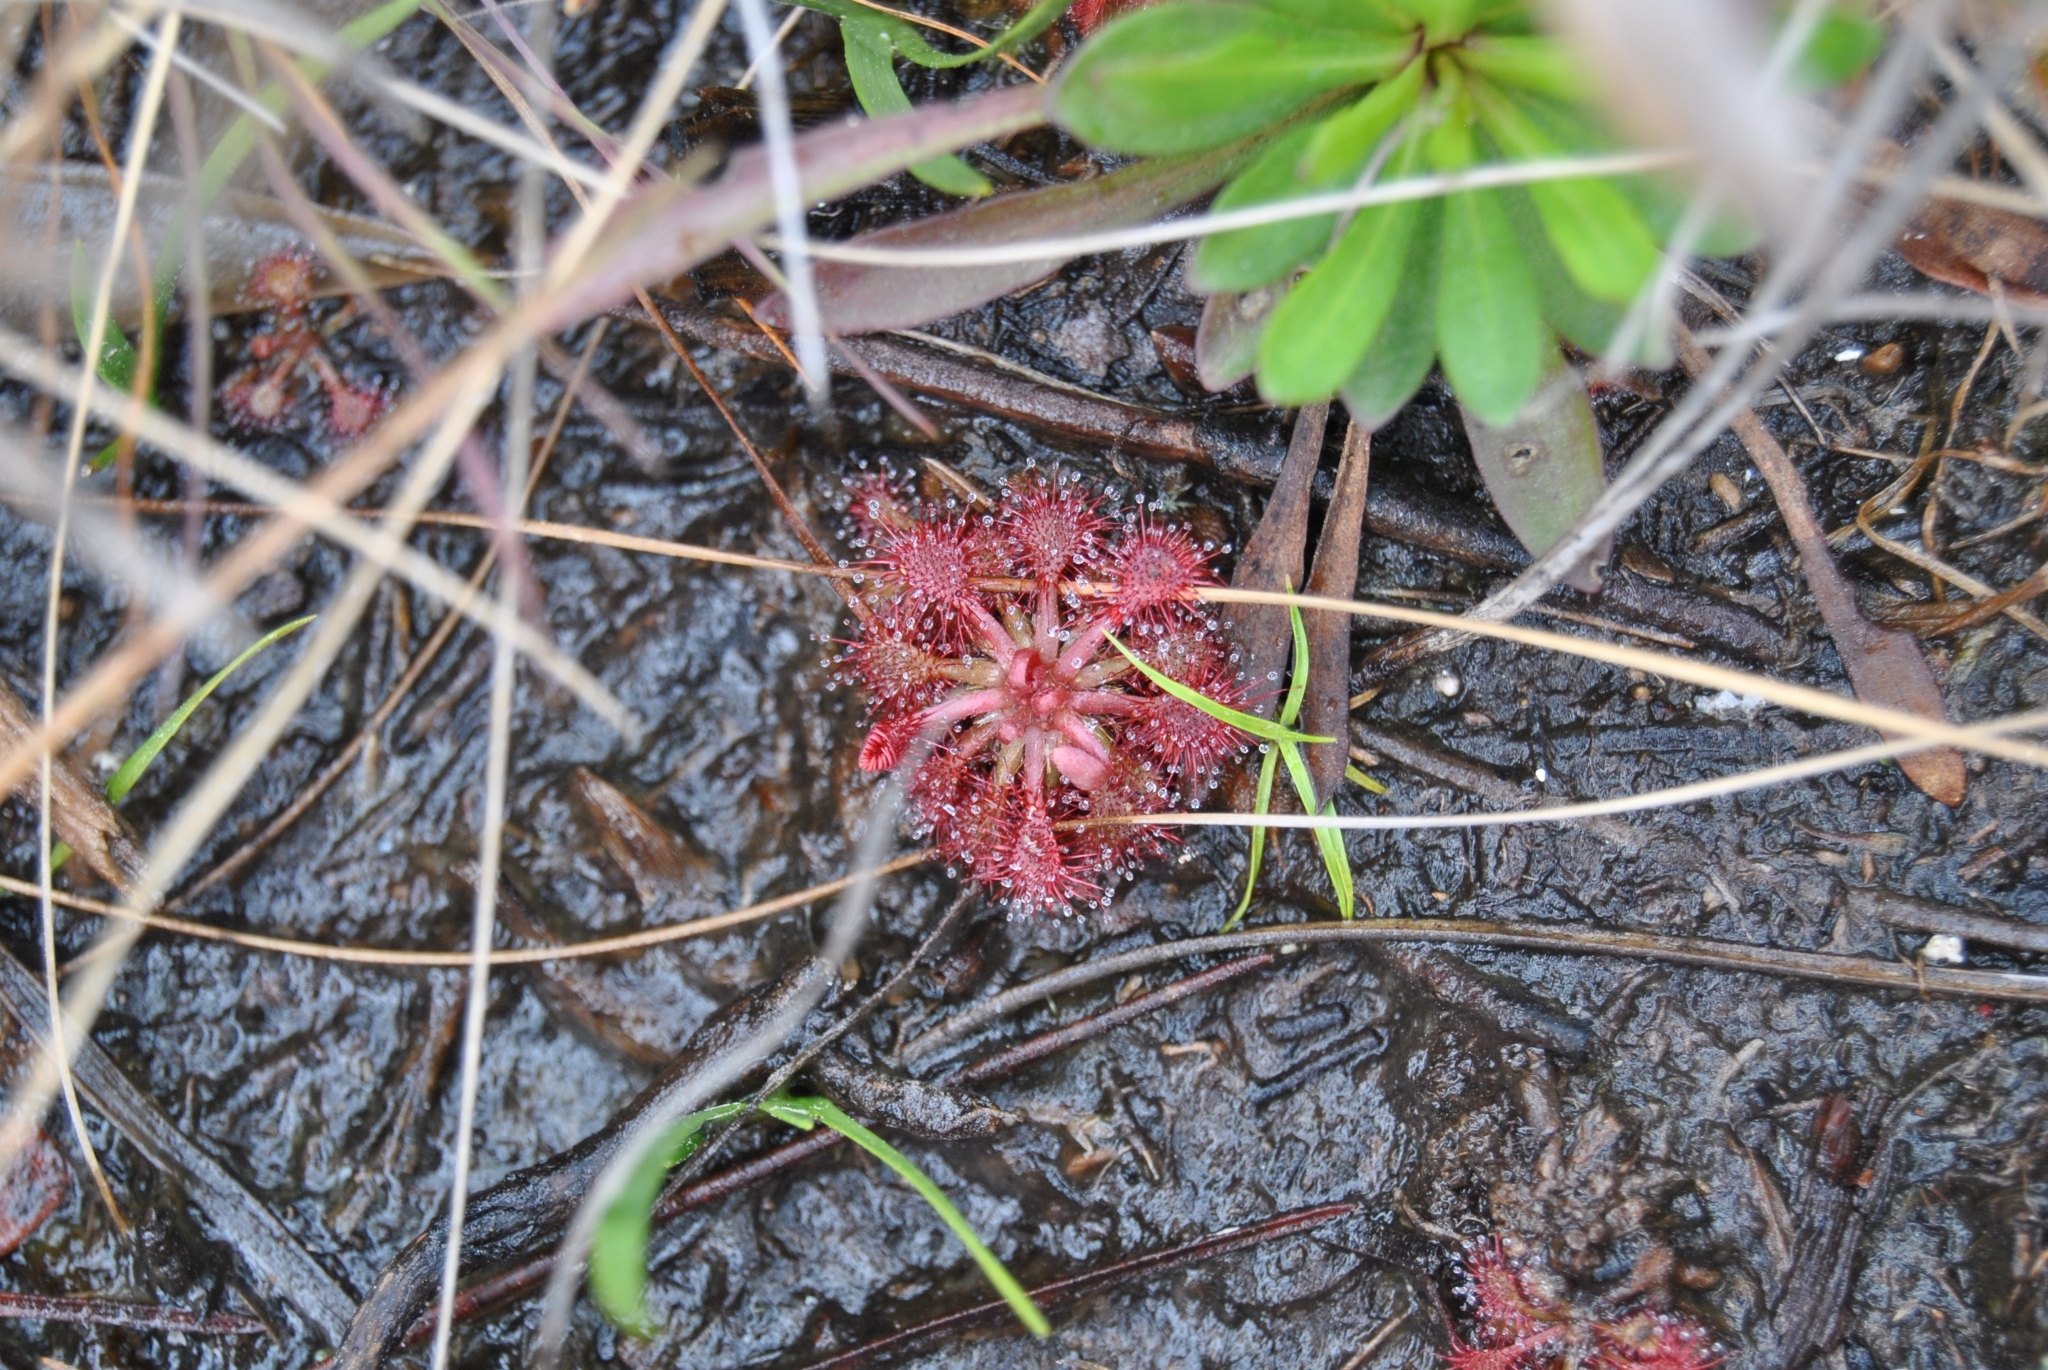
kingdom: Plantae
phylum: Tracheophyta
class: Magnoliopsida
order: Caryophyllales
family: Droseraceae
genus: Drosera
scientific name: Drosera capillaris
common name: Pink sundew
